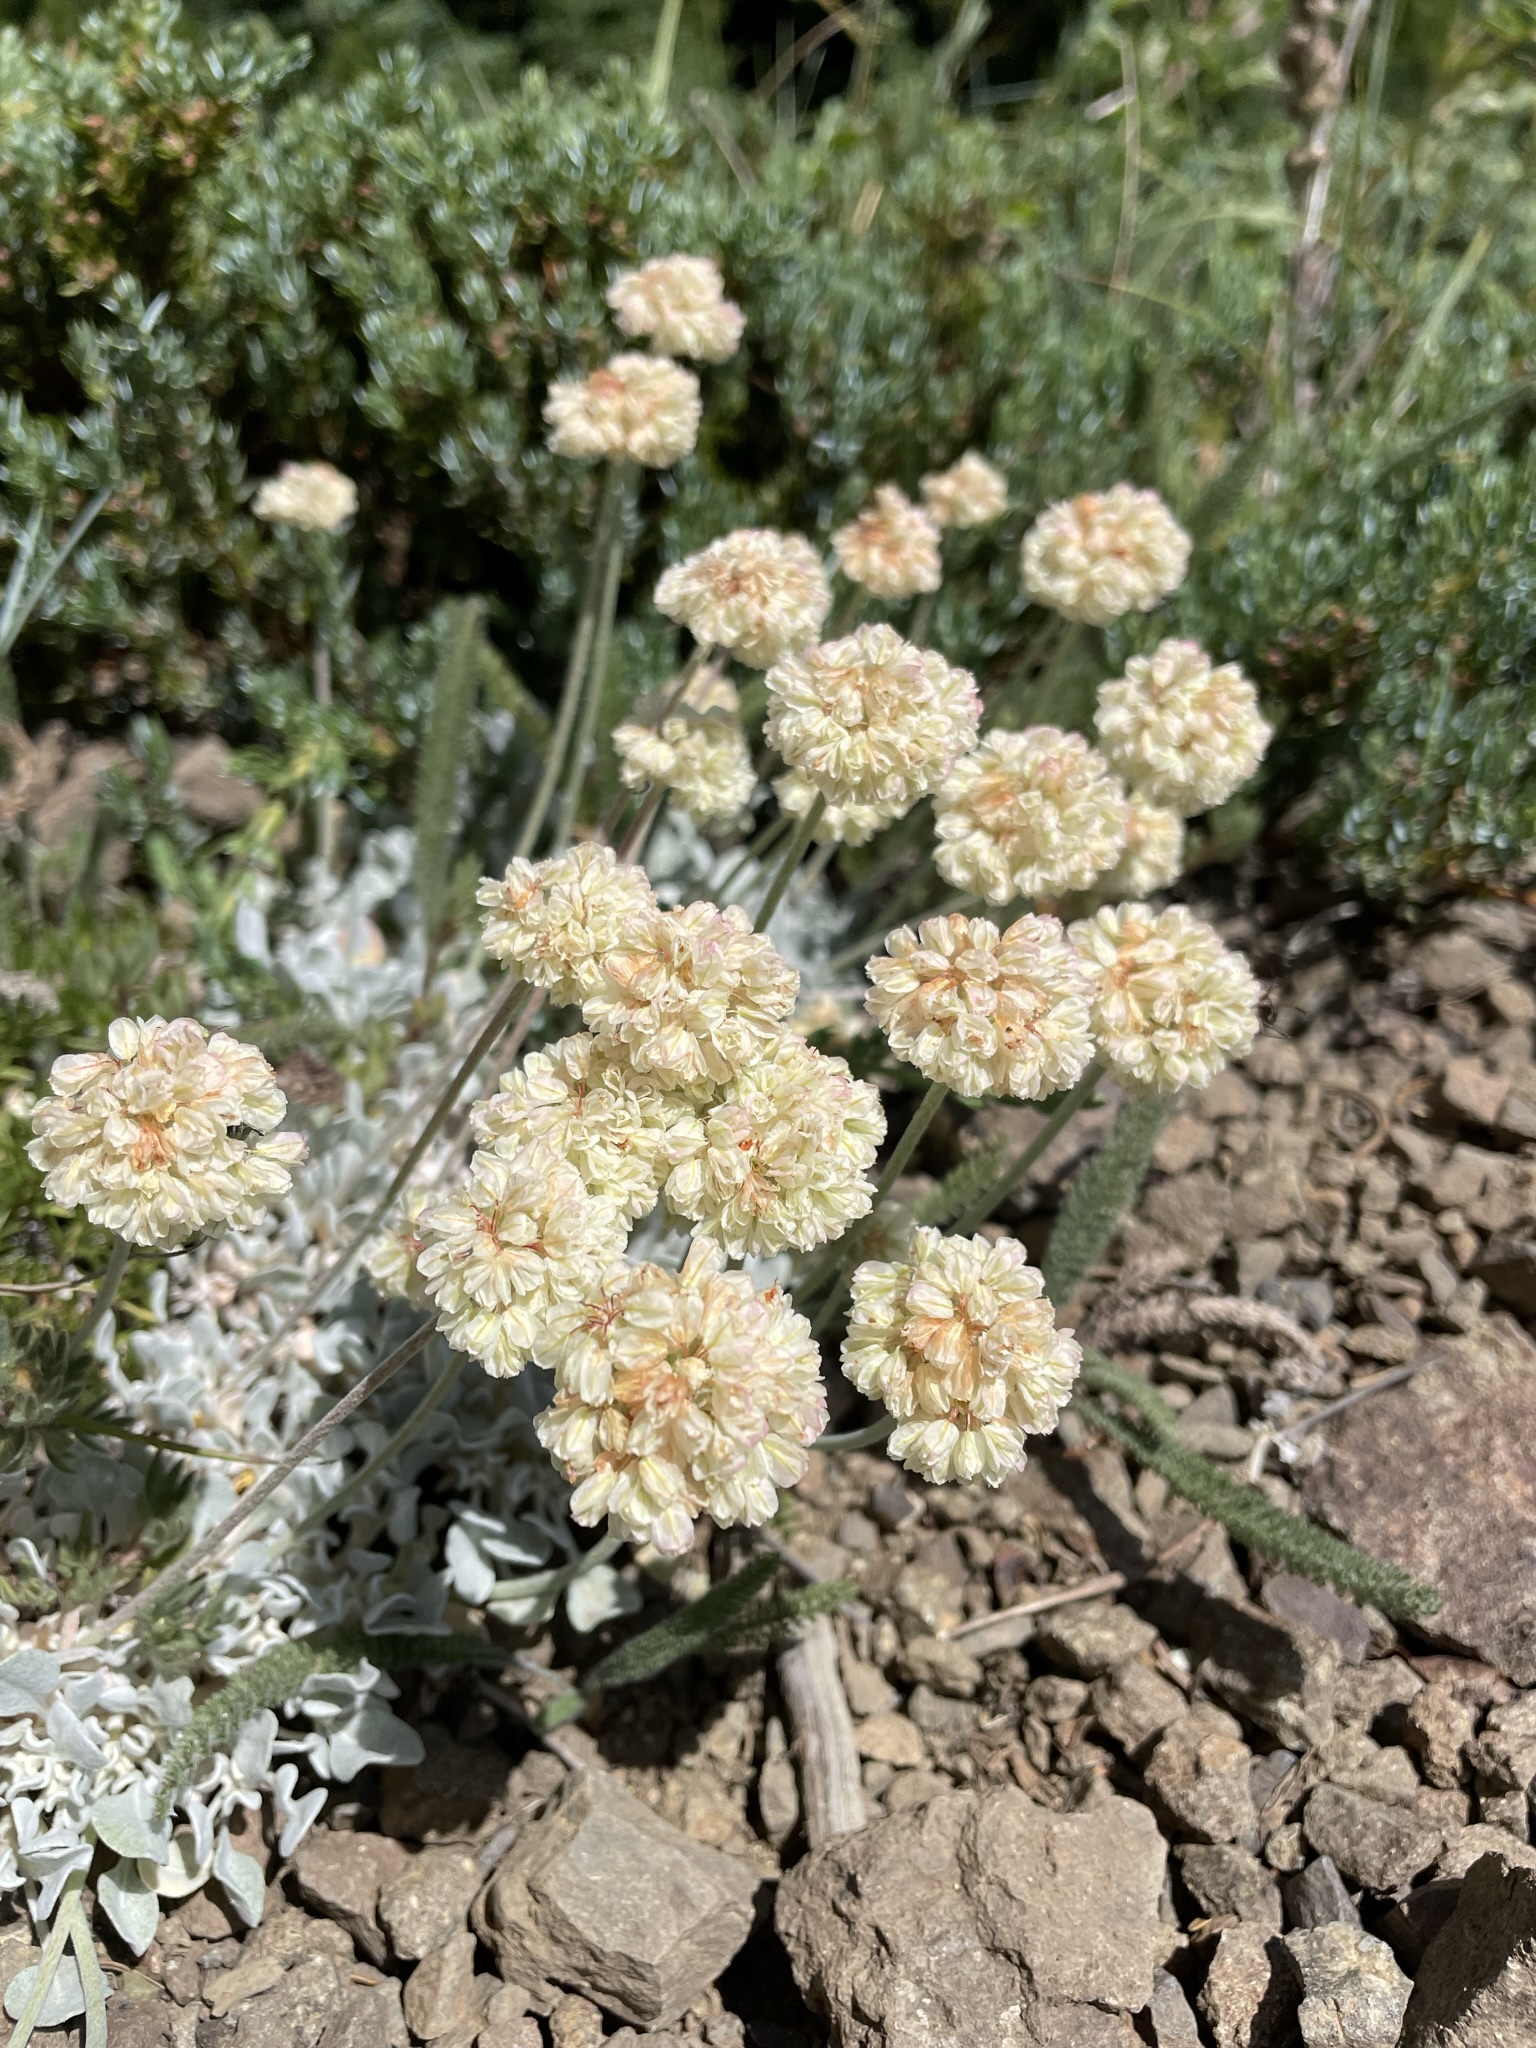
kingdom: Plantae
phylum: Tracheophyta
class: Magnoliopsida
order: Caryophyllales
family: Polygonaceae
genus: Eriogonum
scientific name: Eriogonum ovalifolium
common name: Cushion buckwheat
